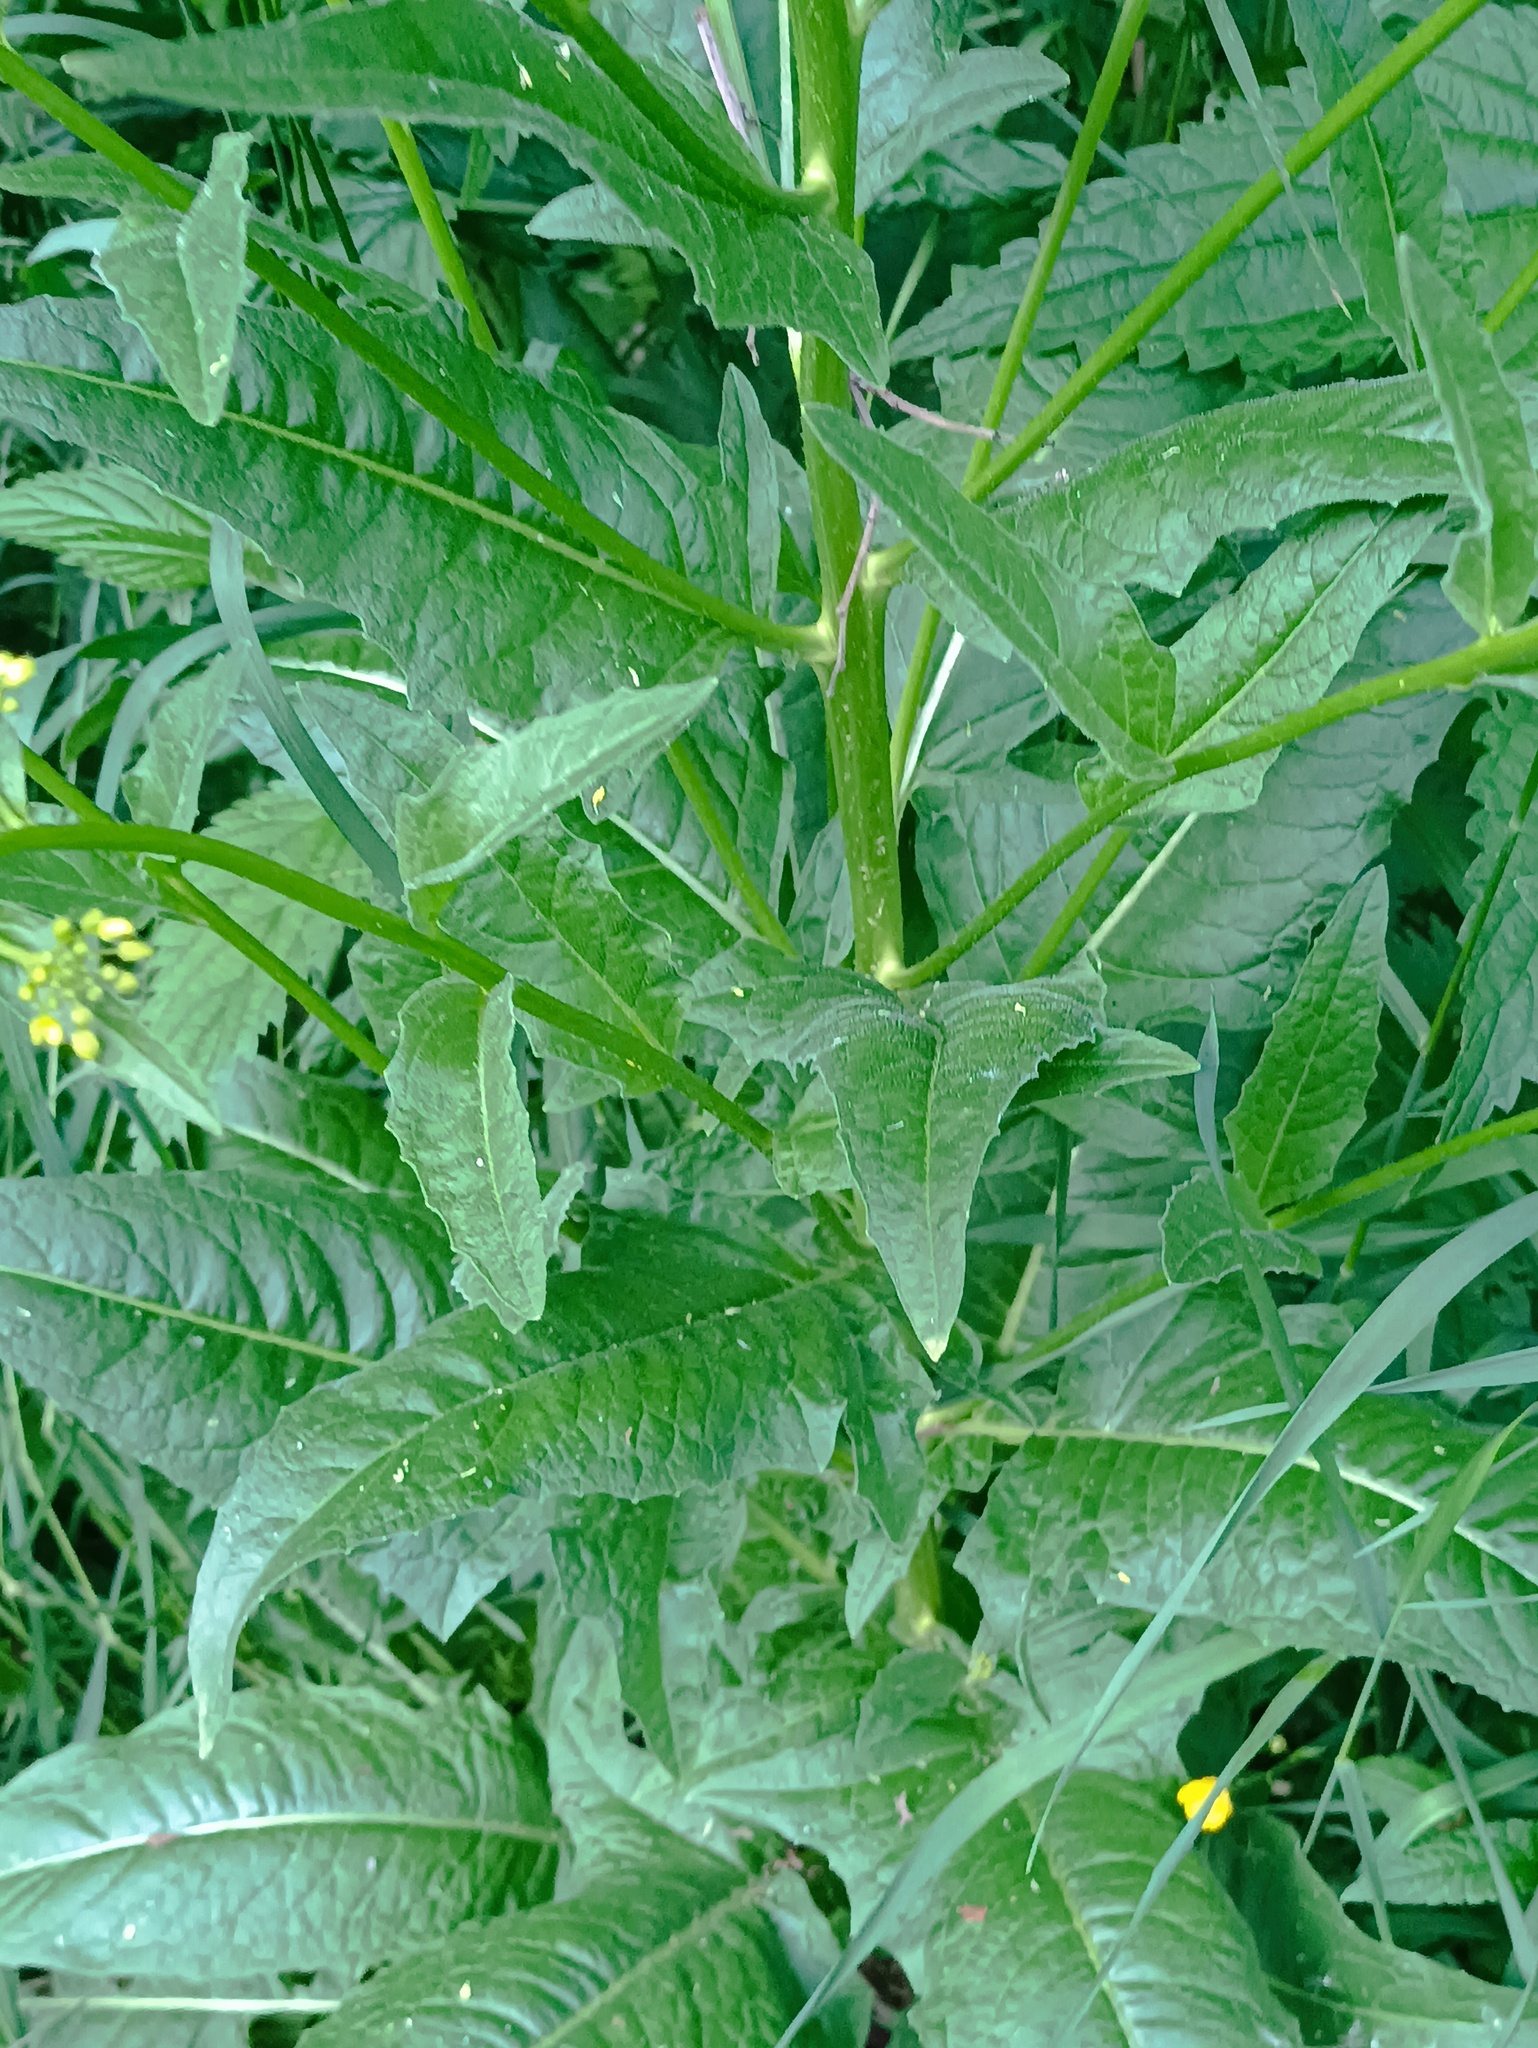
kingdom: Plantae
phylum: Tracheophyta
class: Magnoliopsida
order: Brassicales
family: Brassicaceae
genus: Bunias
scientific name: Bunias orientalis
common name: Warty-cabbage
